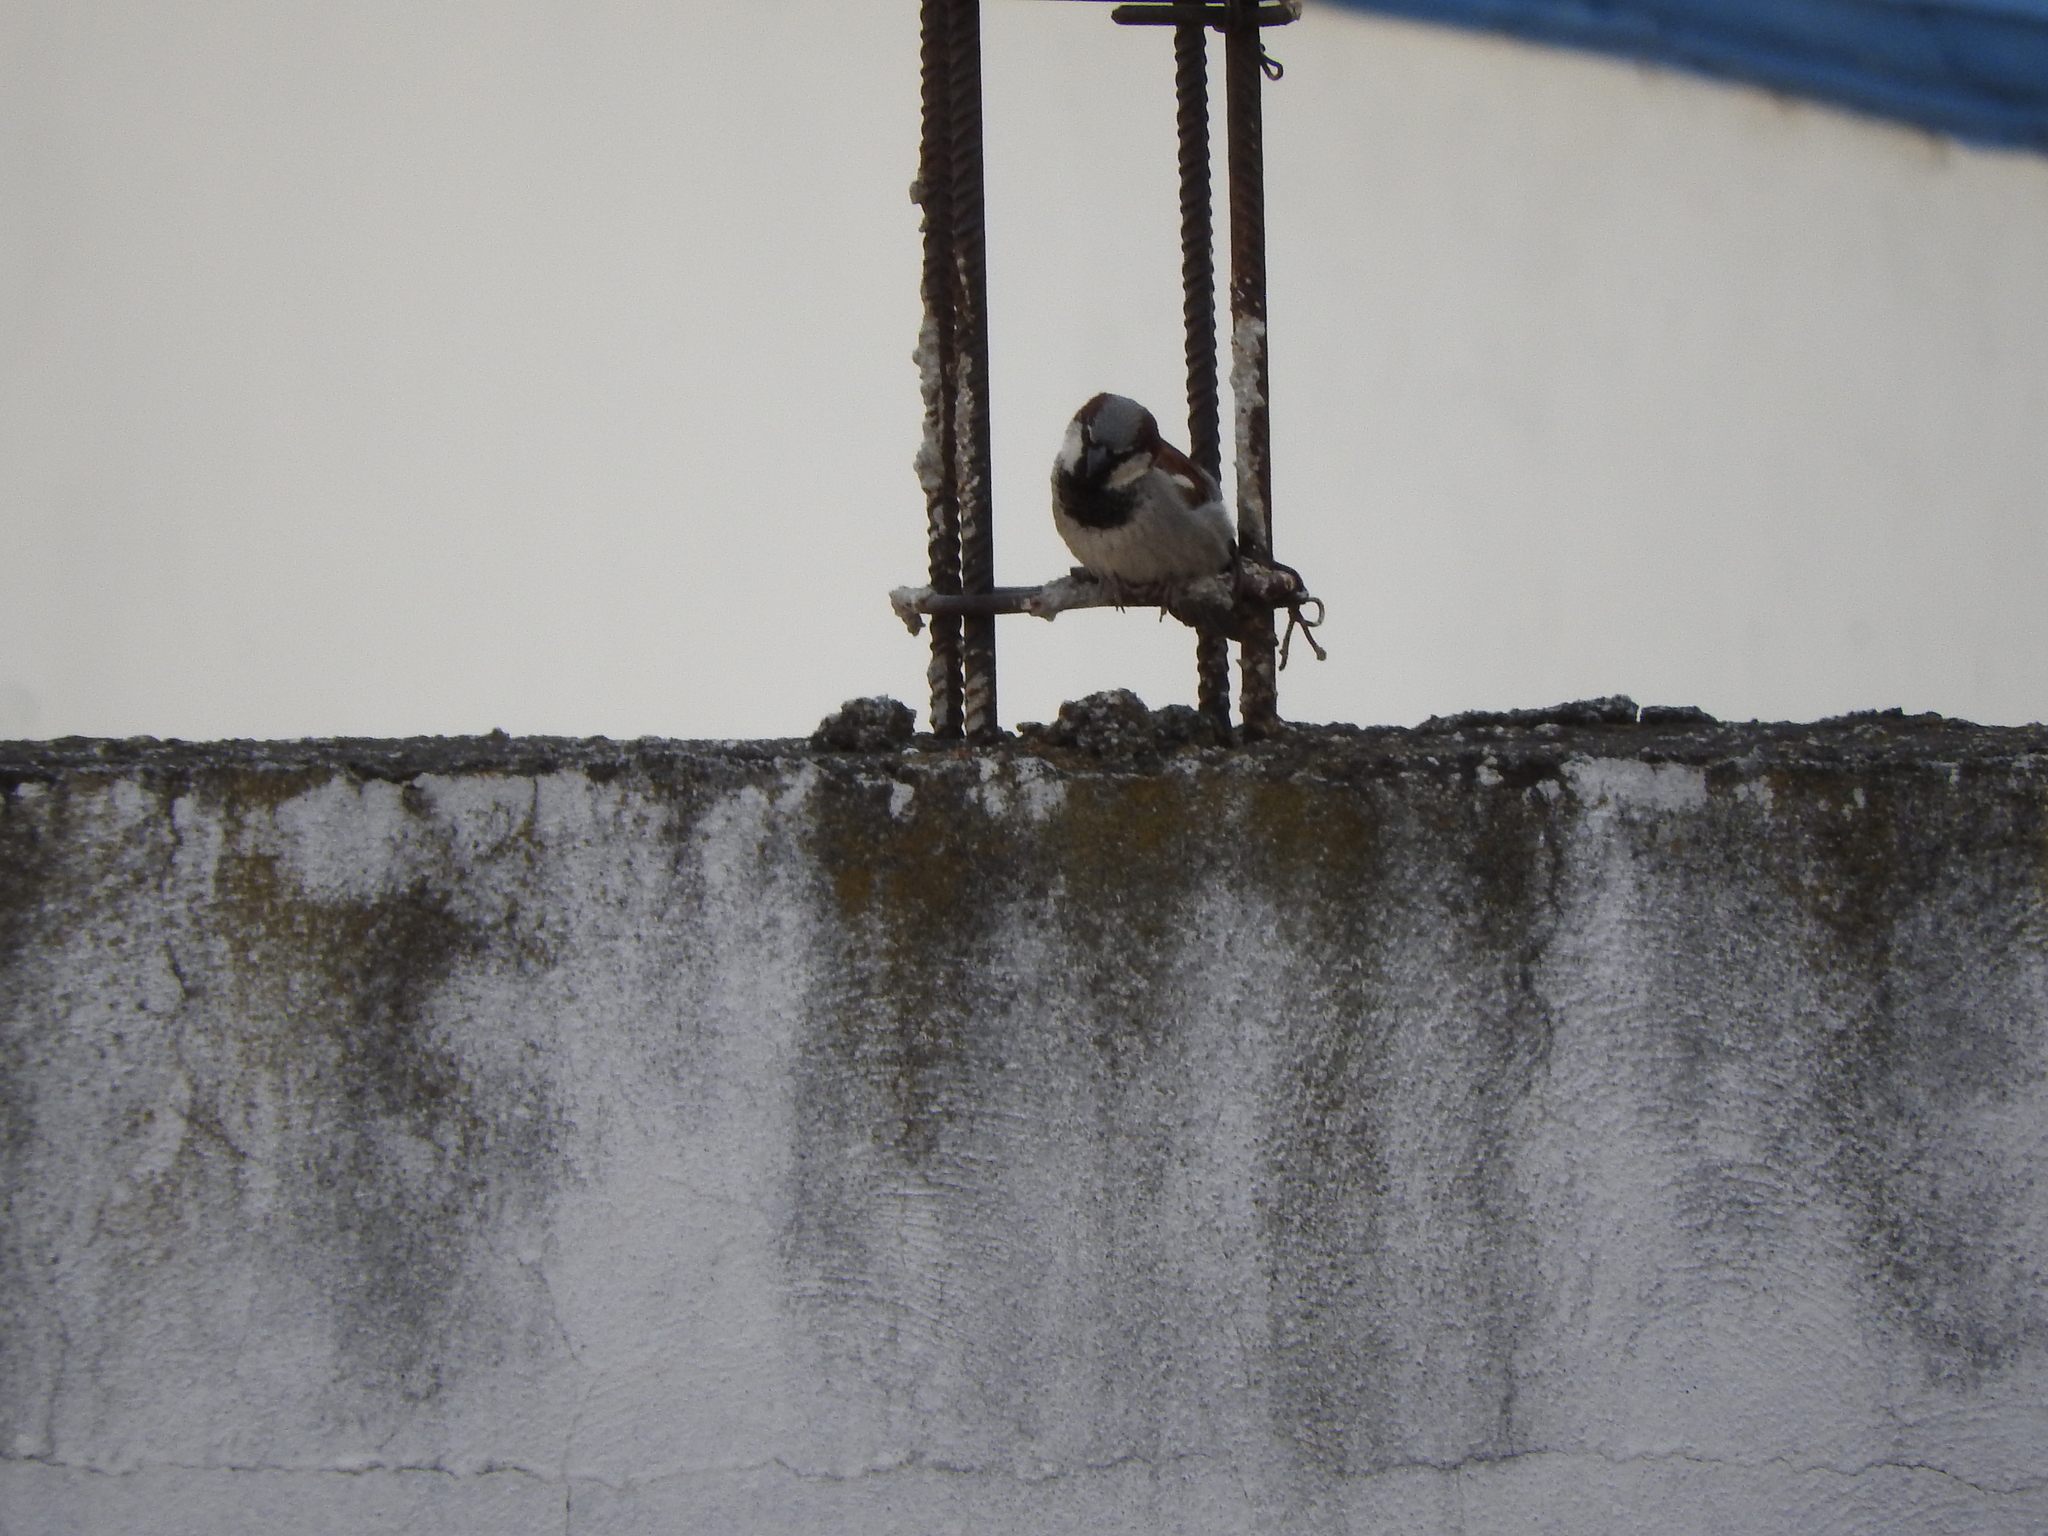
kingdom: Animalia
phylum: Chordata
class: Aves
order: Passeriformes
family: Passeridae
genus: Passer
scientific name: Passer domesticus
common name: House sparrow
